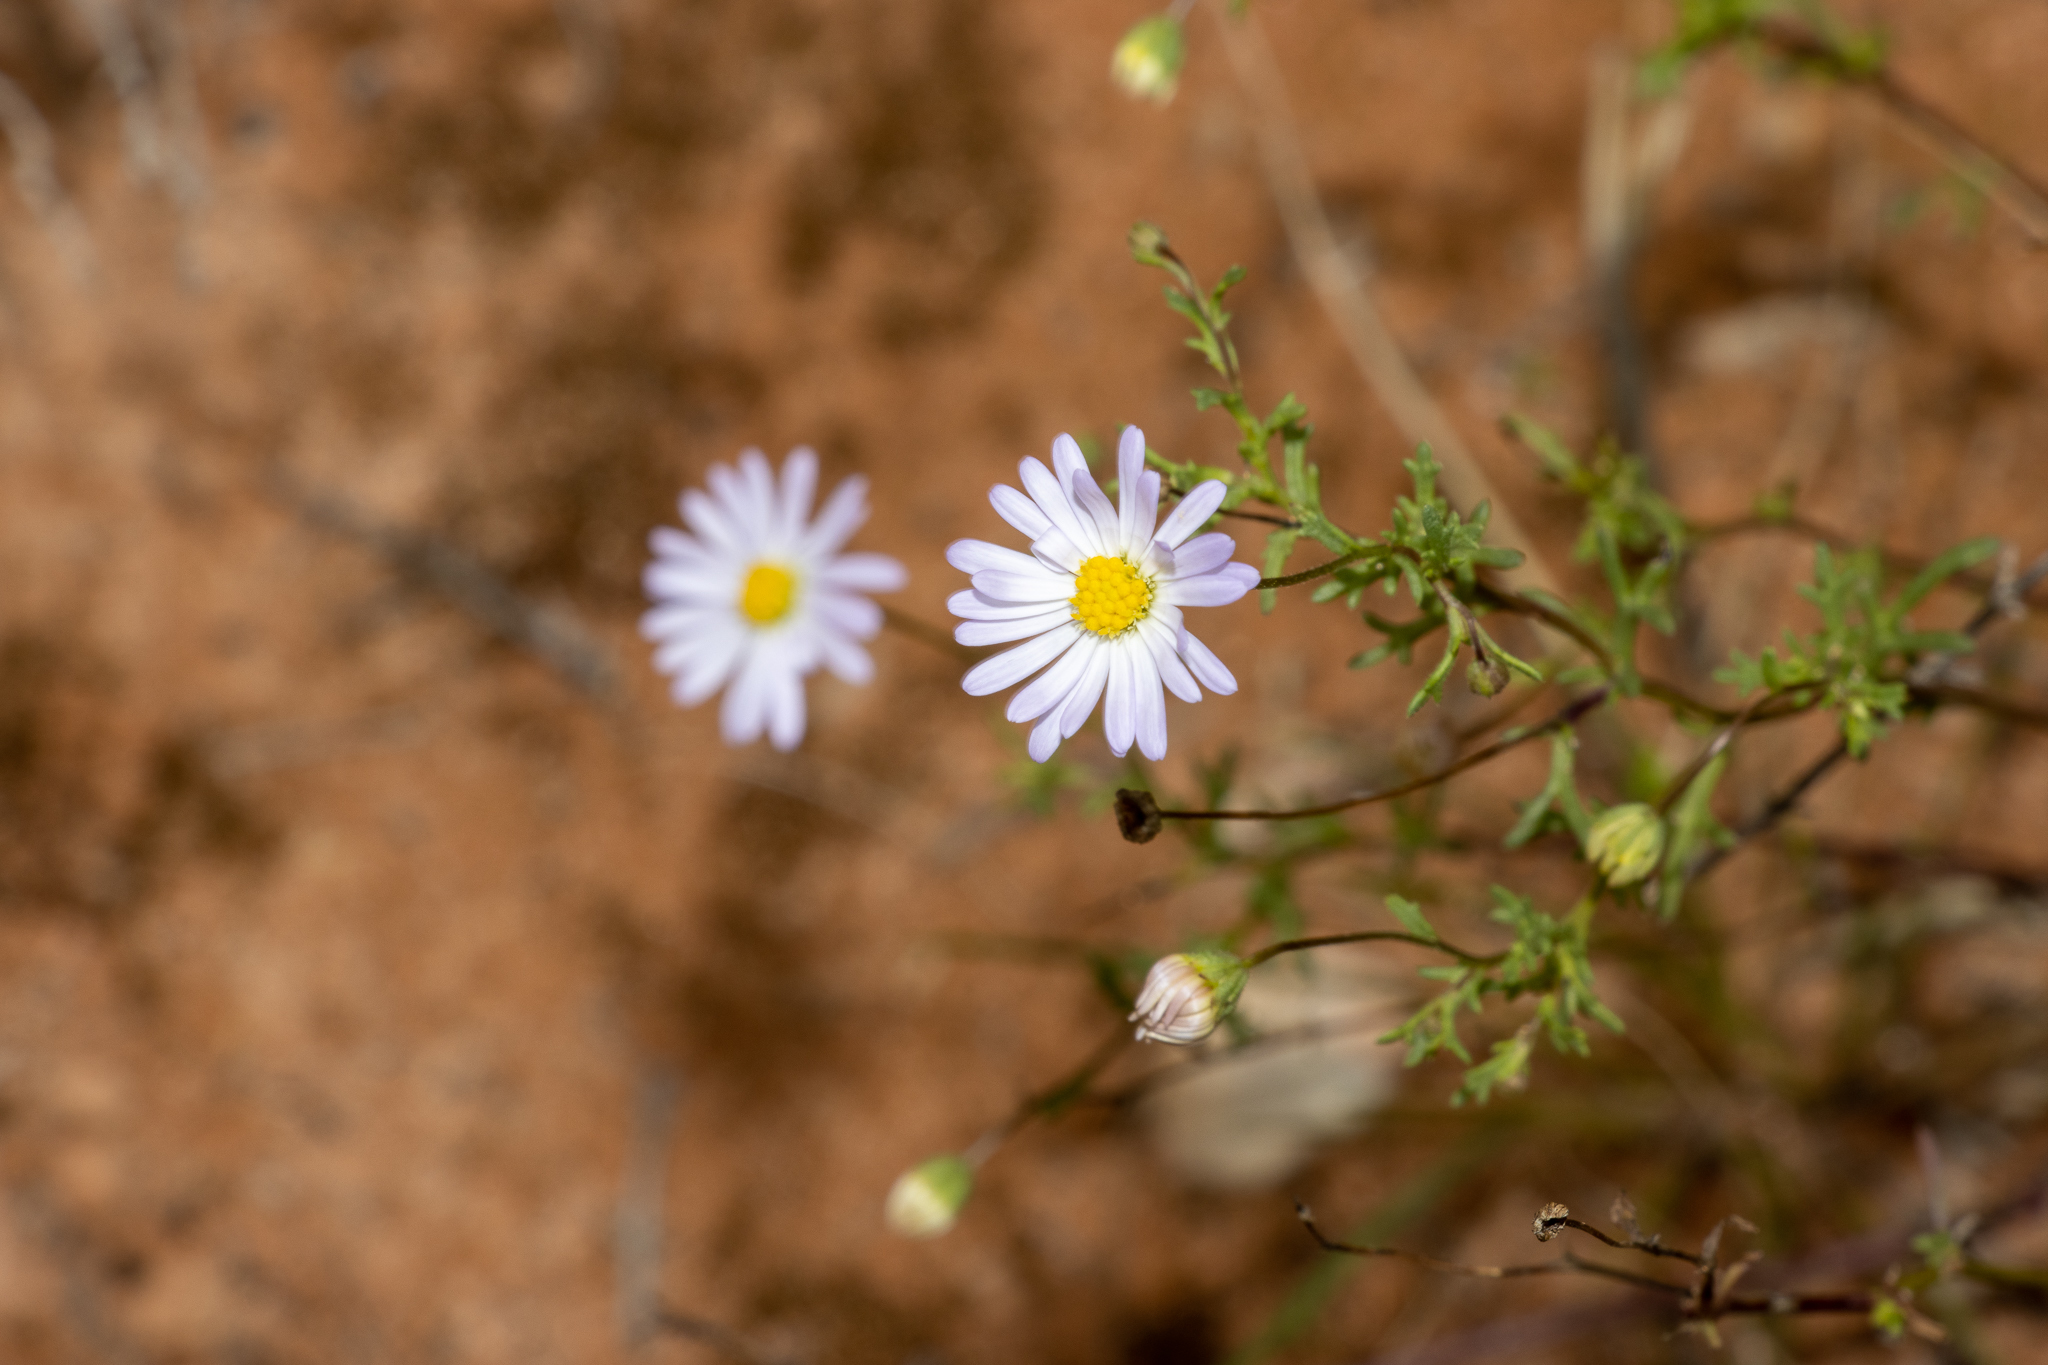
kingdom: Plantae
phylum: Tracheophyta
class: Magnoliopsida
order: Asterales
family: Asteraceae
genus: Brachyscome
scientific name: Brachyscome ciliaris
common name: Variable daisy
